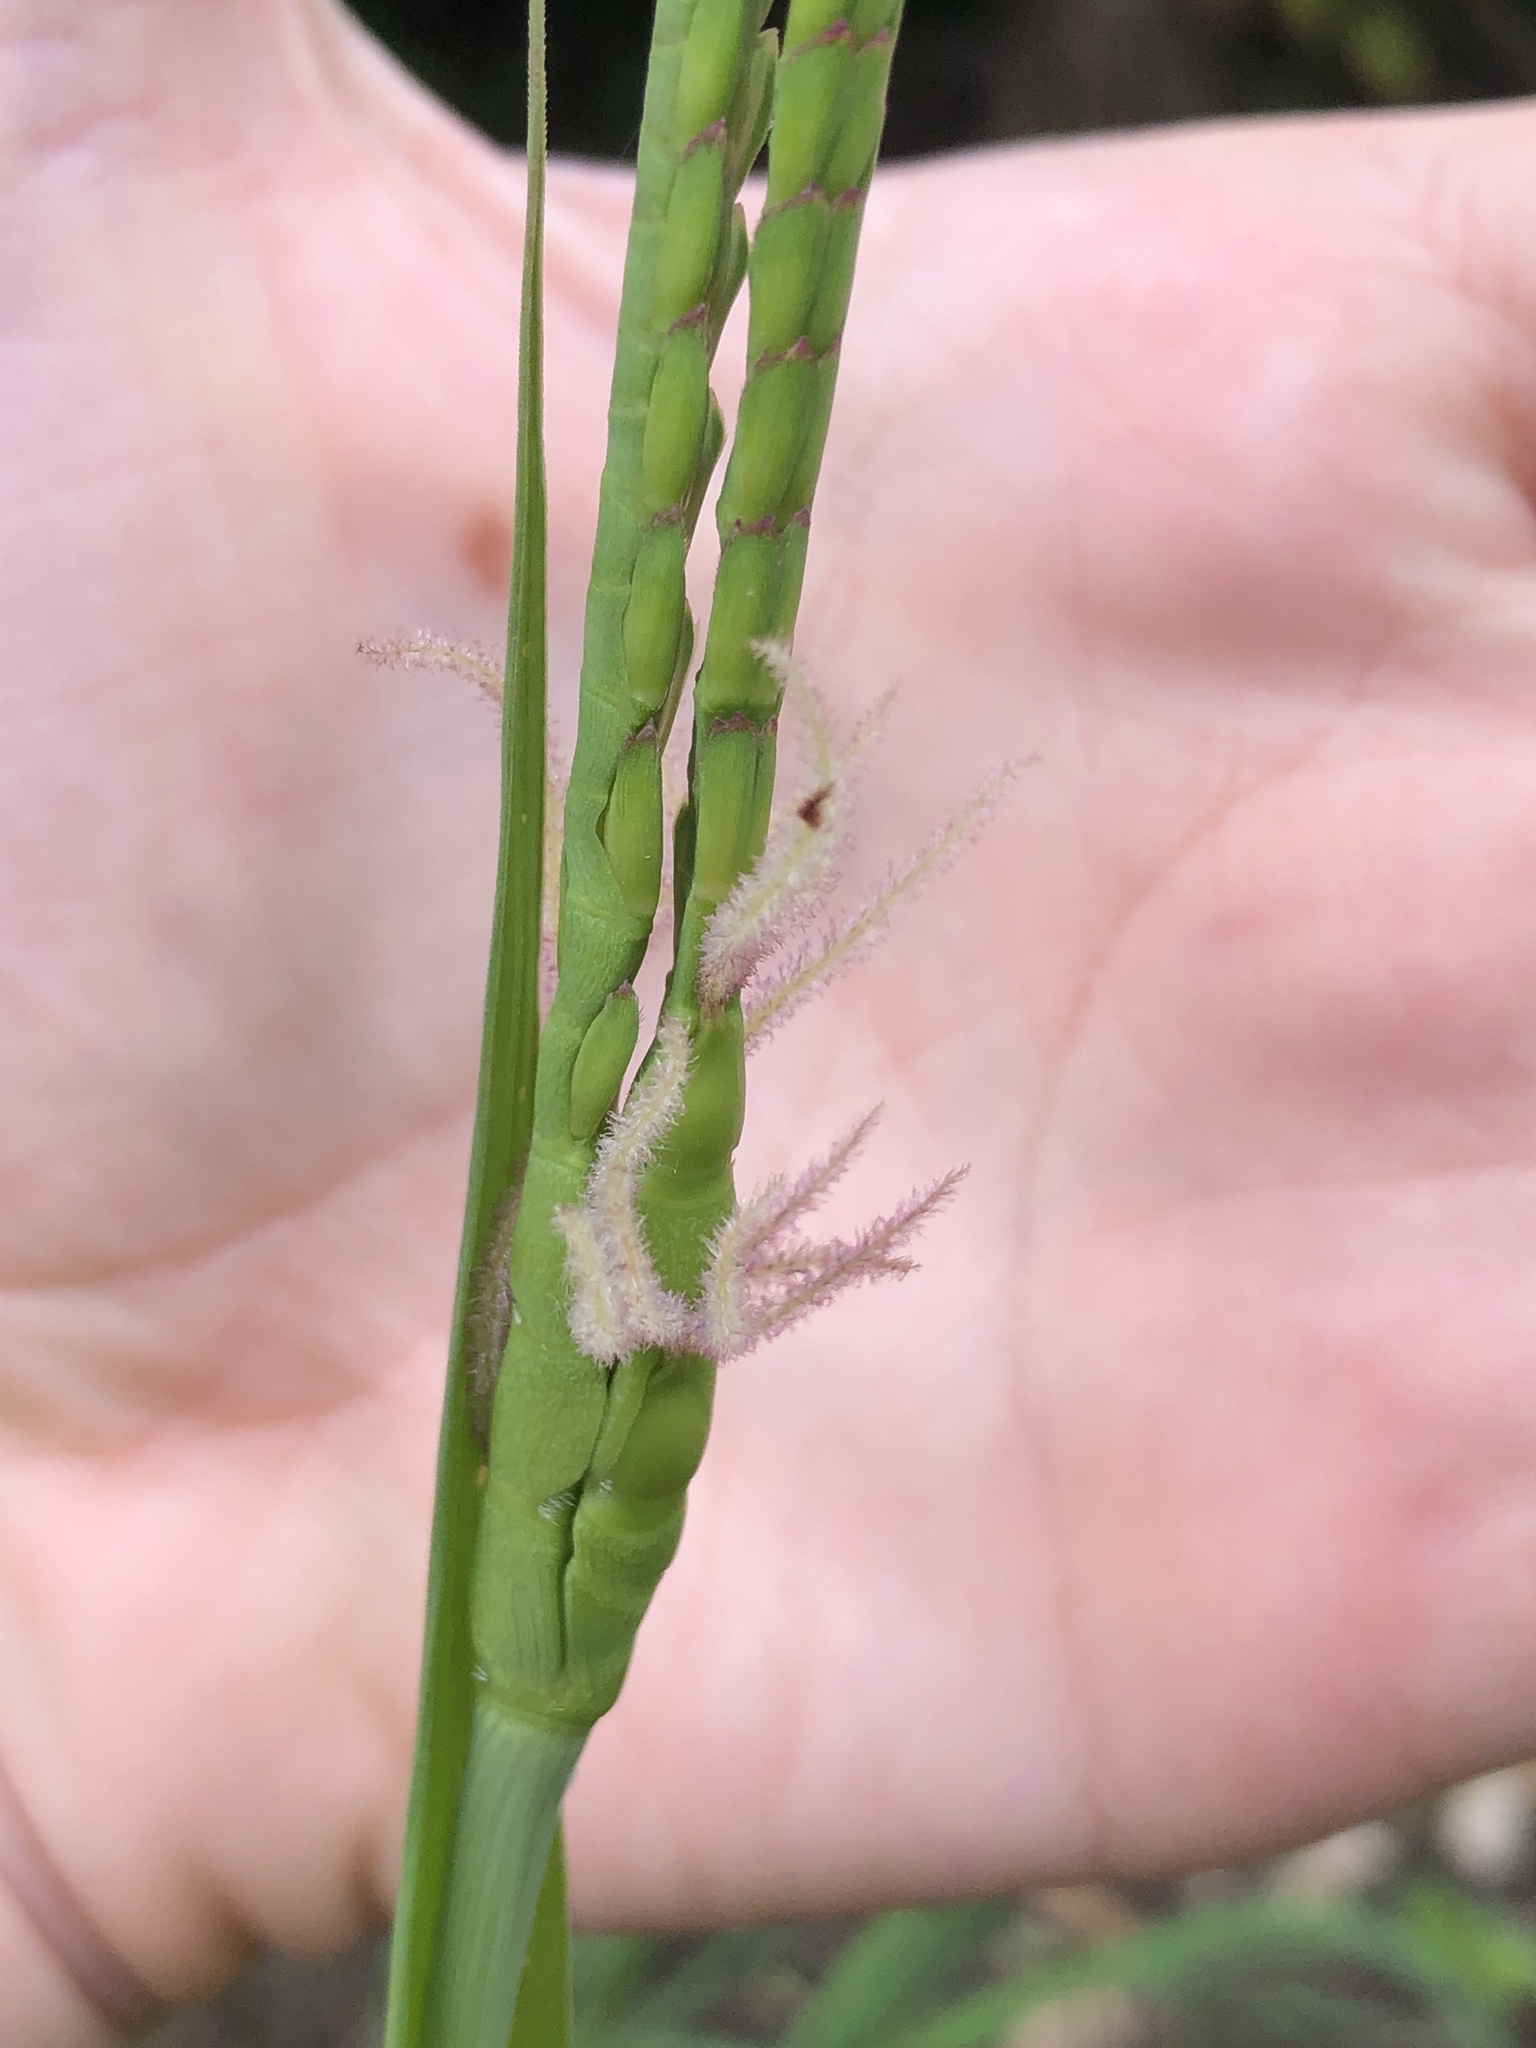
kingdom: Plantae
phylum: Tracheophyta
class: Liliopsida
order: Poales
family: Poaceae
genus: Tripsacum
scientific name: Tripsacum dactyloides
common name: Buffalo-grass
